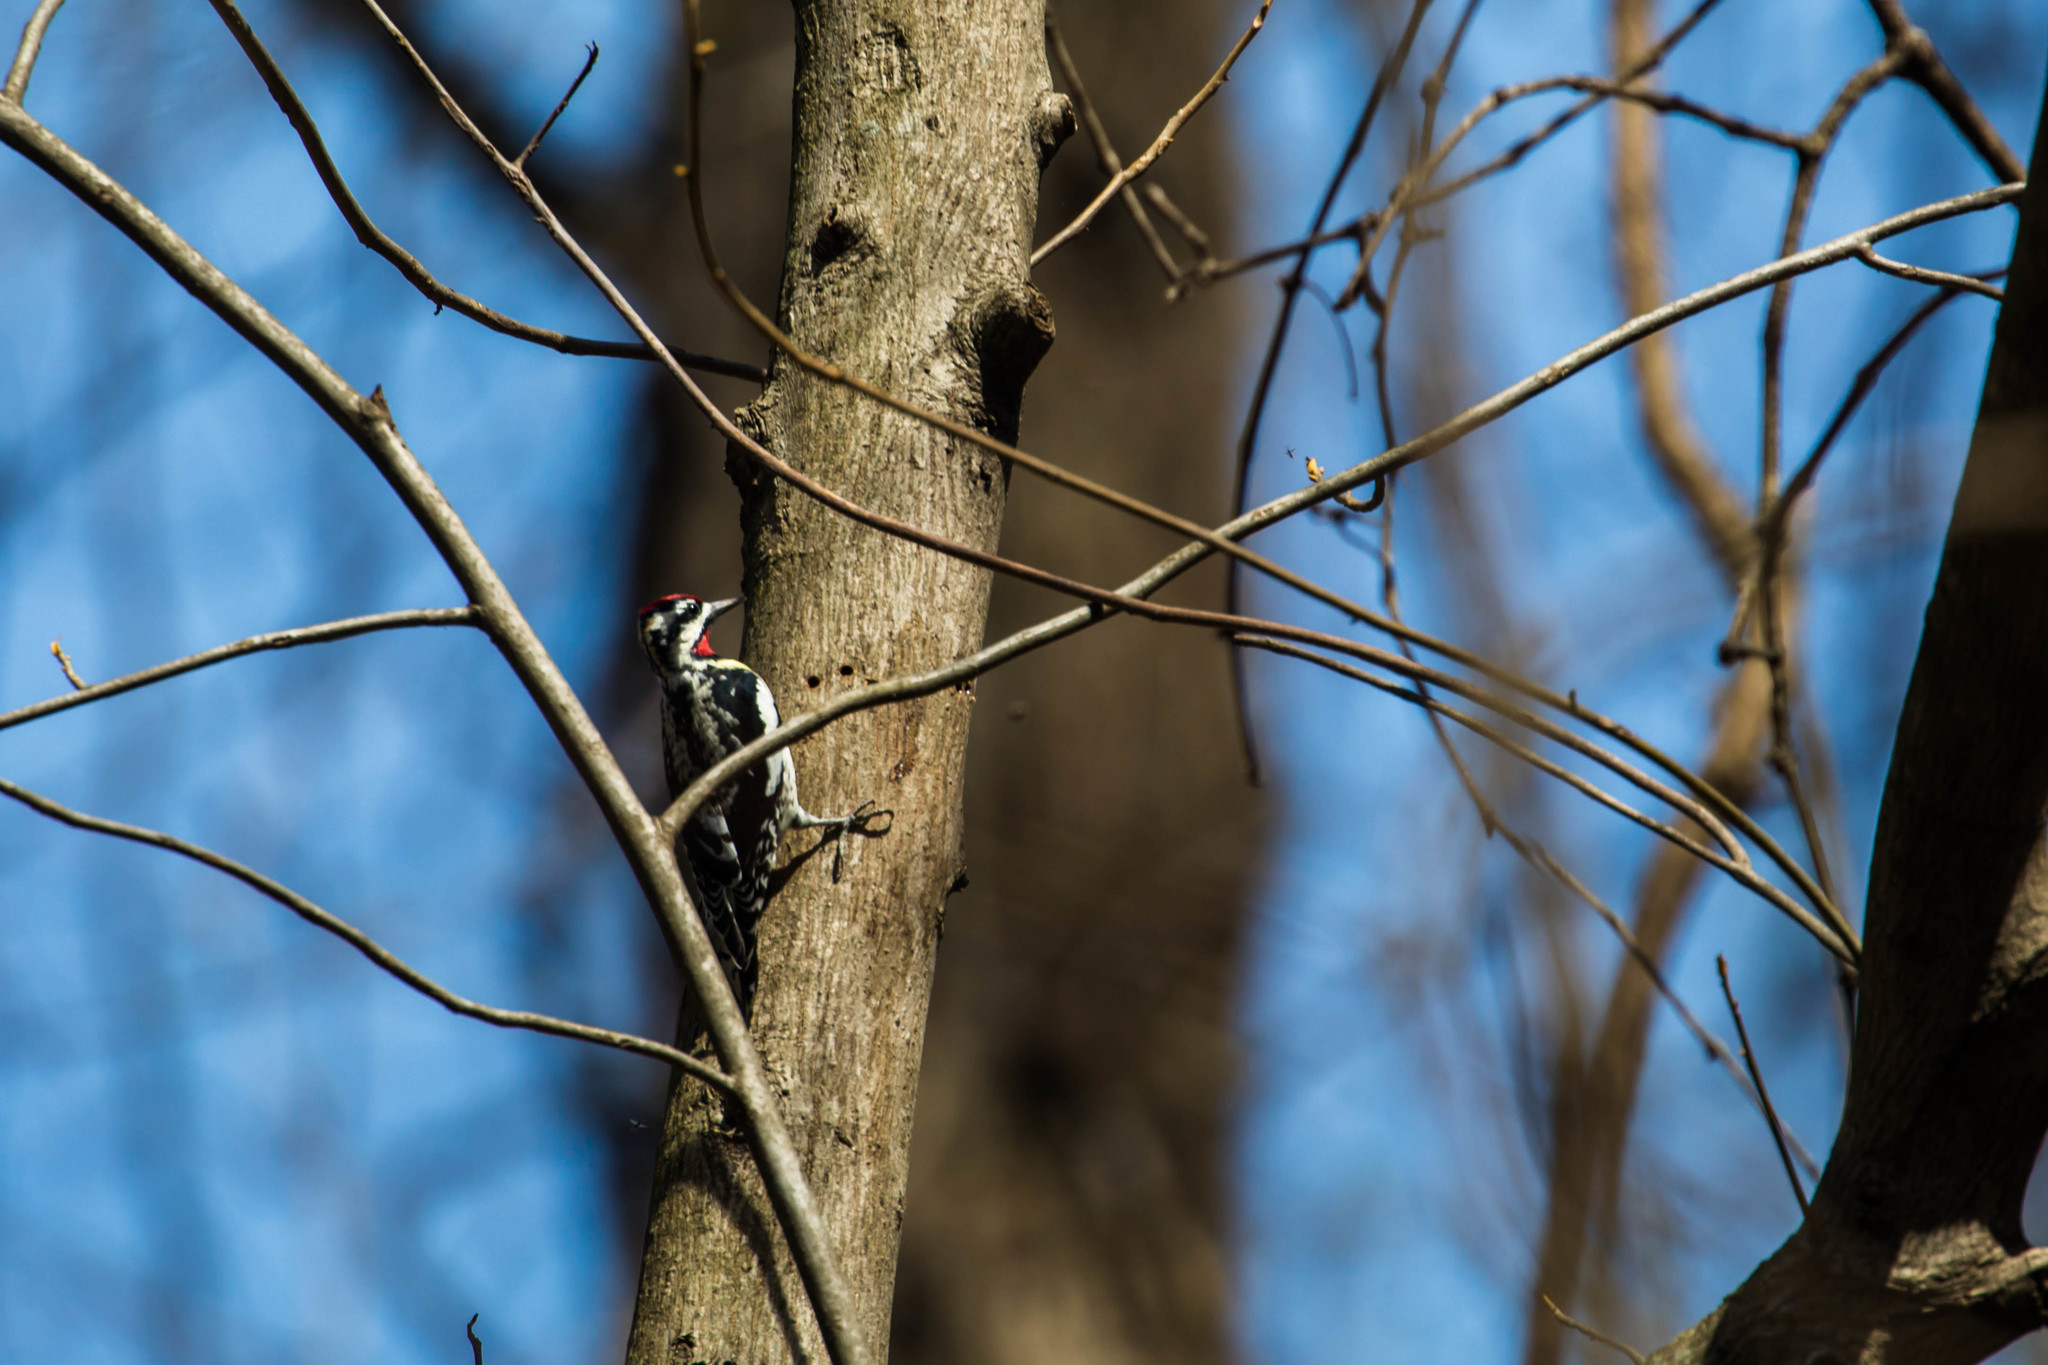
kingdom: Animalia
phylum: Chordata
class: Aves
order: Piciformes
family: Picidae
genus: Sphyrapicus
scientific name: Sphyrapicus varius
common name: Yellow-bellied sapsucker
